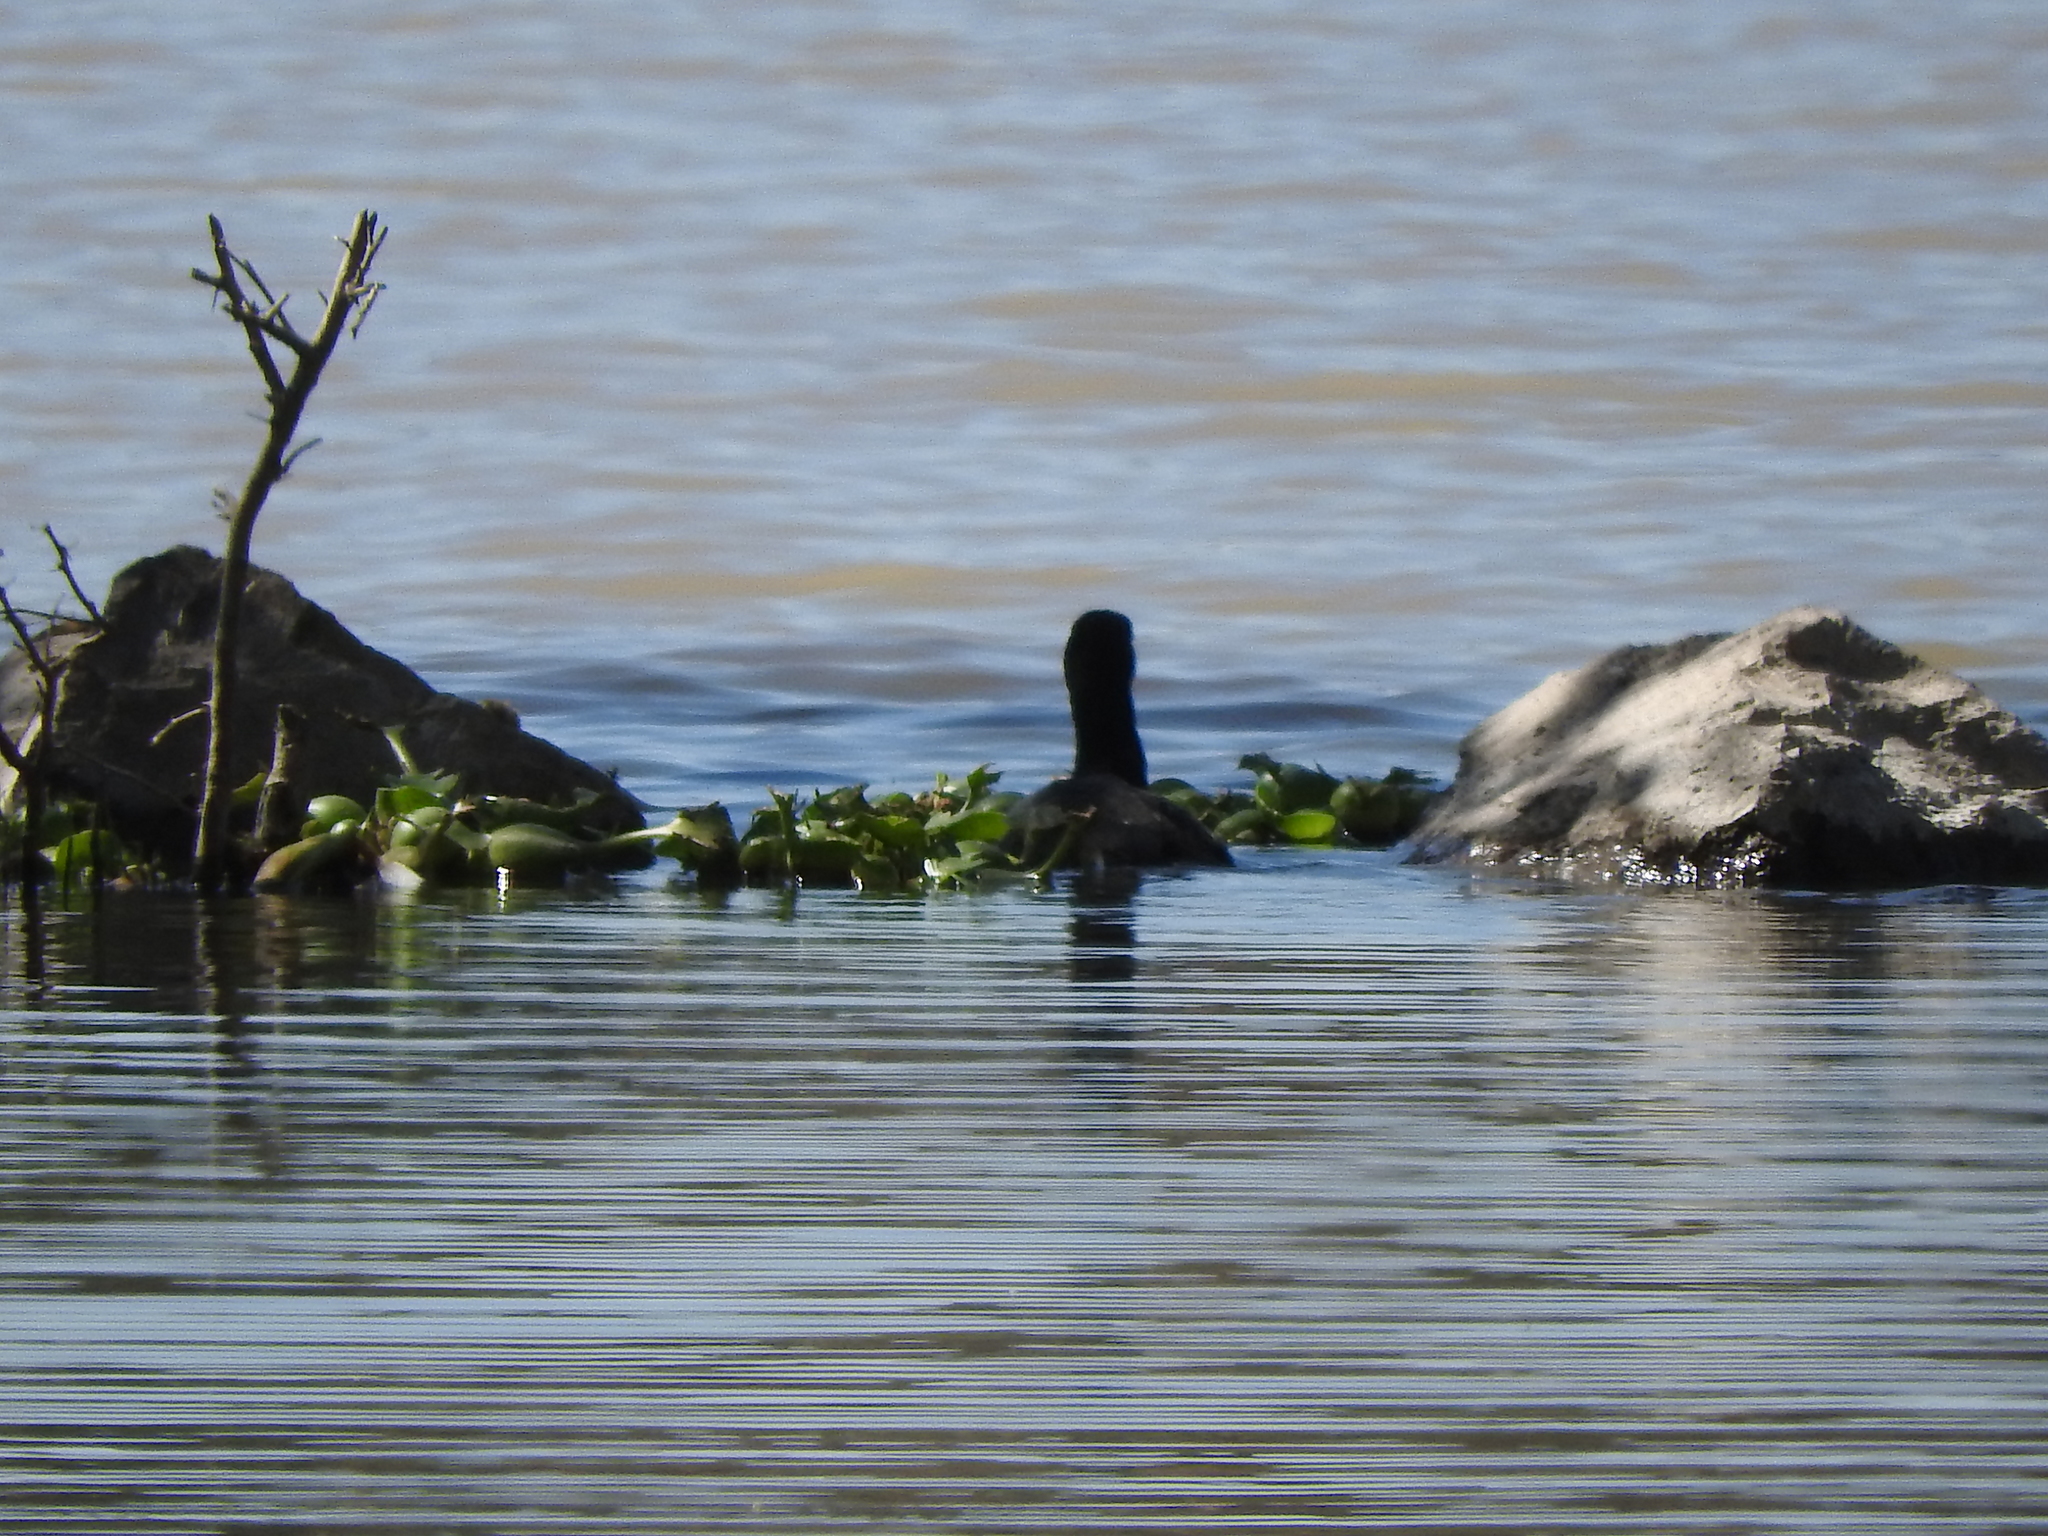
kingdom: Animalia
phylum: Chordata
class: Aves
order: Gruiformes
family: Rallidae
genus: Fulica
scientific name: Fulica americana
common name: American coot
